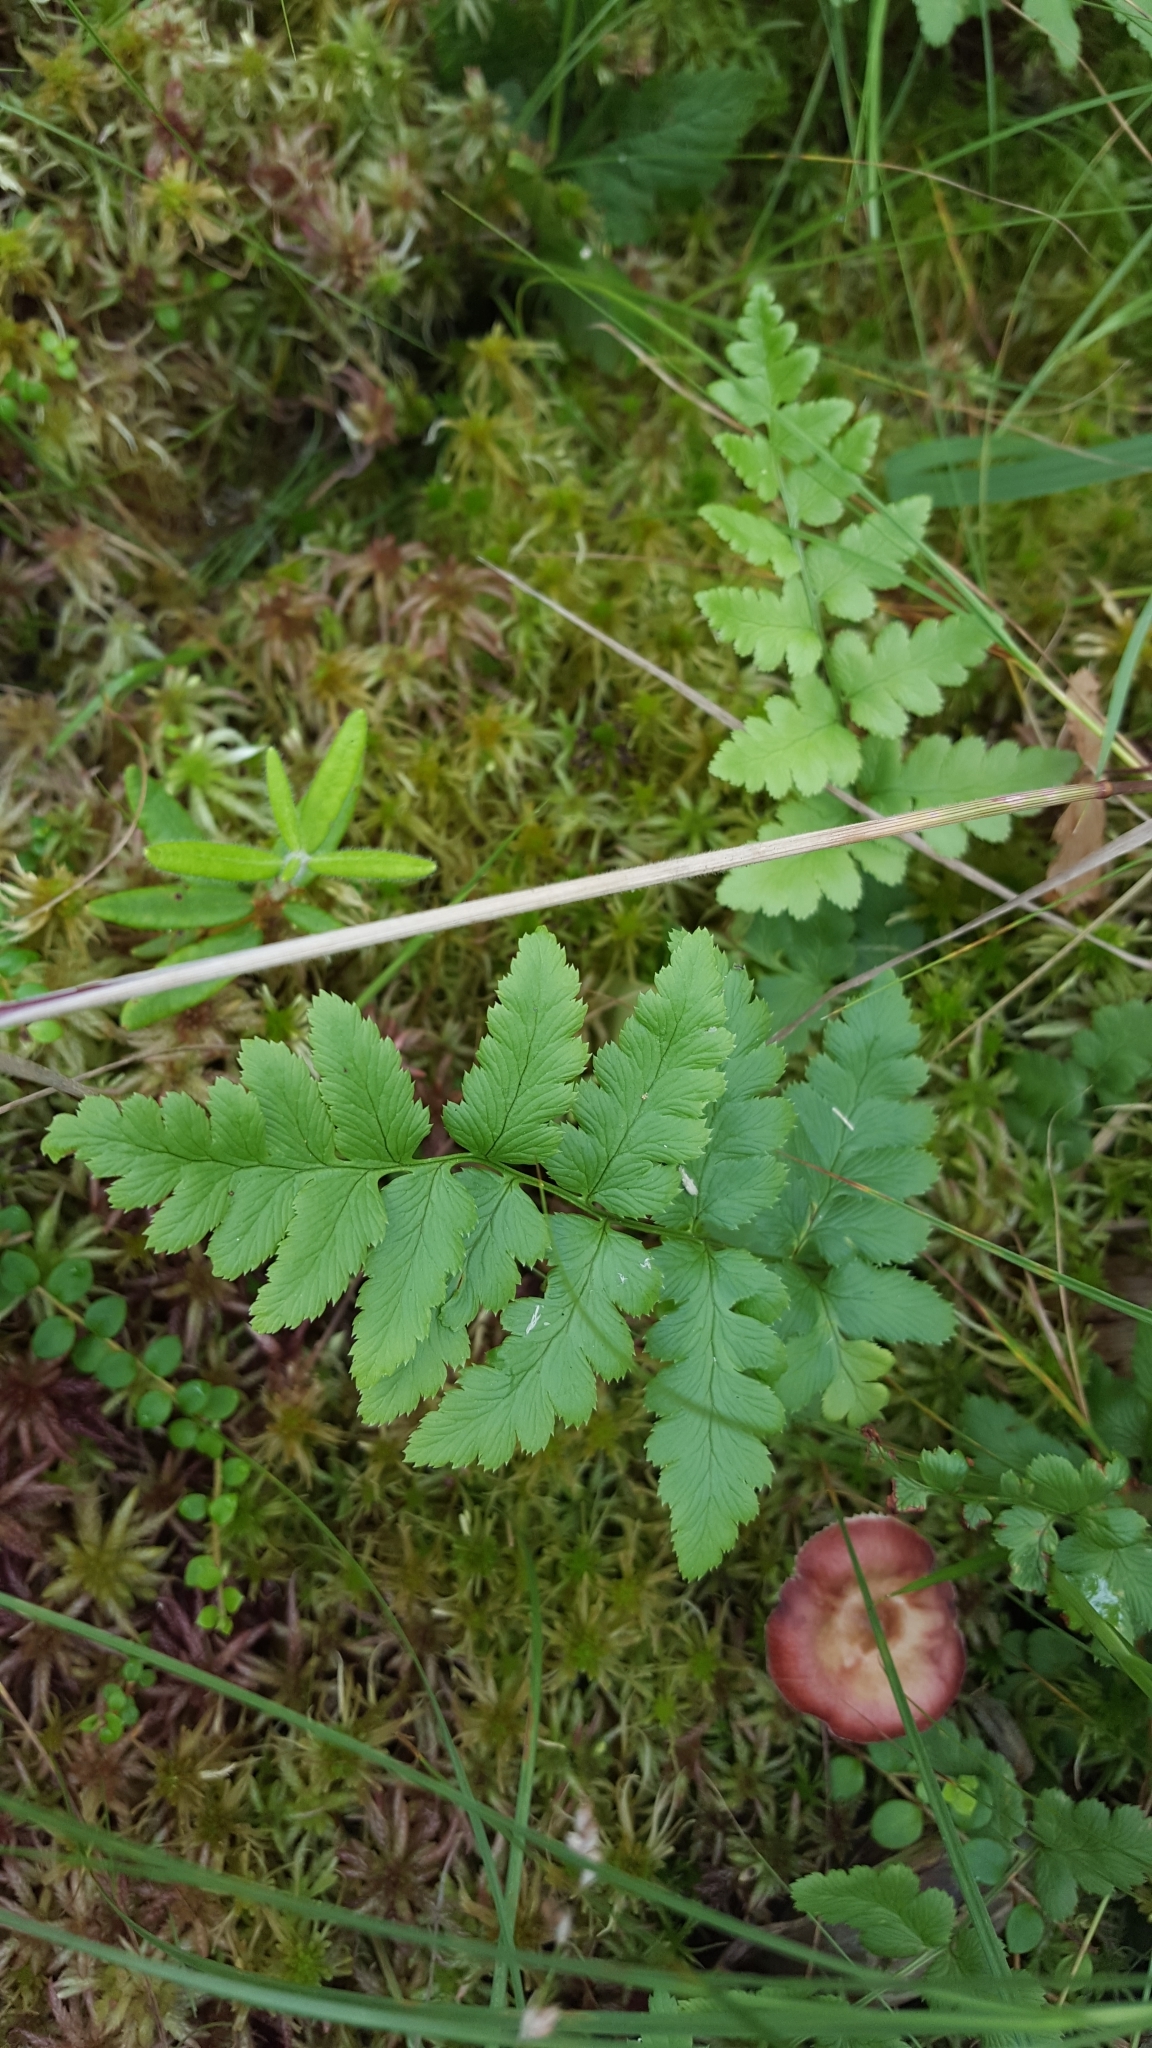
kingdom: Plantae
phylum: Tracheophyta
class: Polypodiopsida
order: Polypodiales
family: Dryopteridaceae
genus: Dryopteris
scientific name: Dryopteris cristata
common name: Crested wood fern
